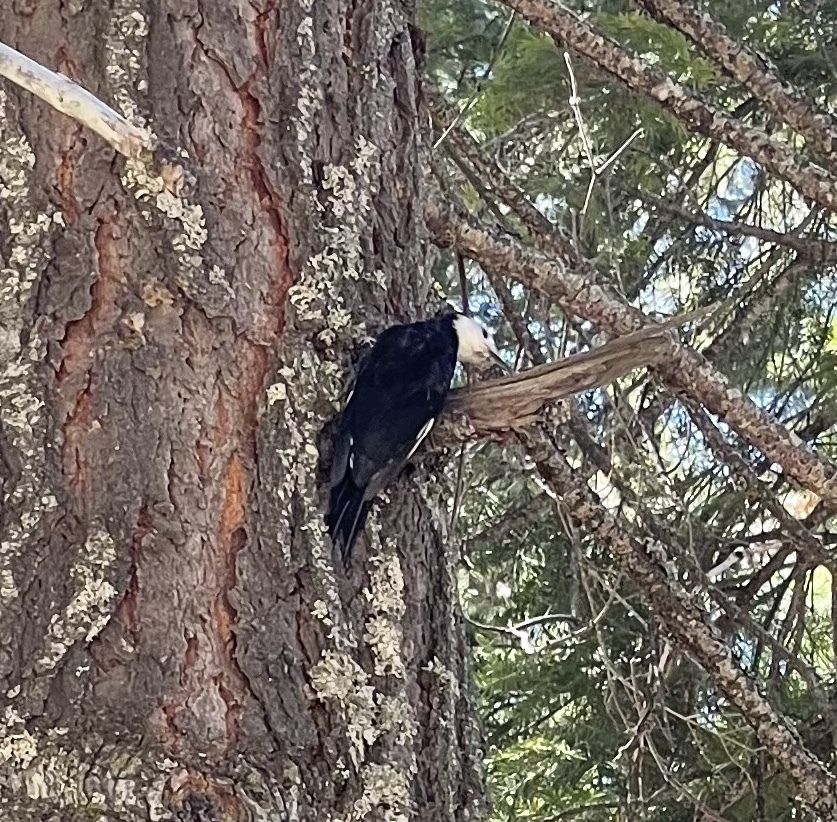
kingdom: Animalia
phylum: Chordata
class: Aves
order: Piciformes
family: Picidae
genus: Leuconotopicus
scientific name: Leuconotopicus albolarvatus
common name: White-headed woodpecker
